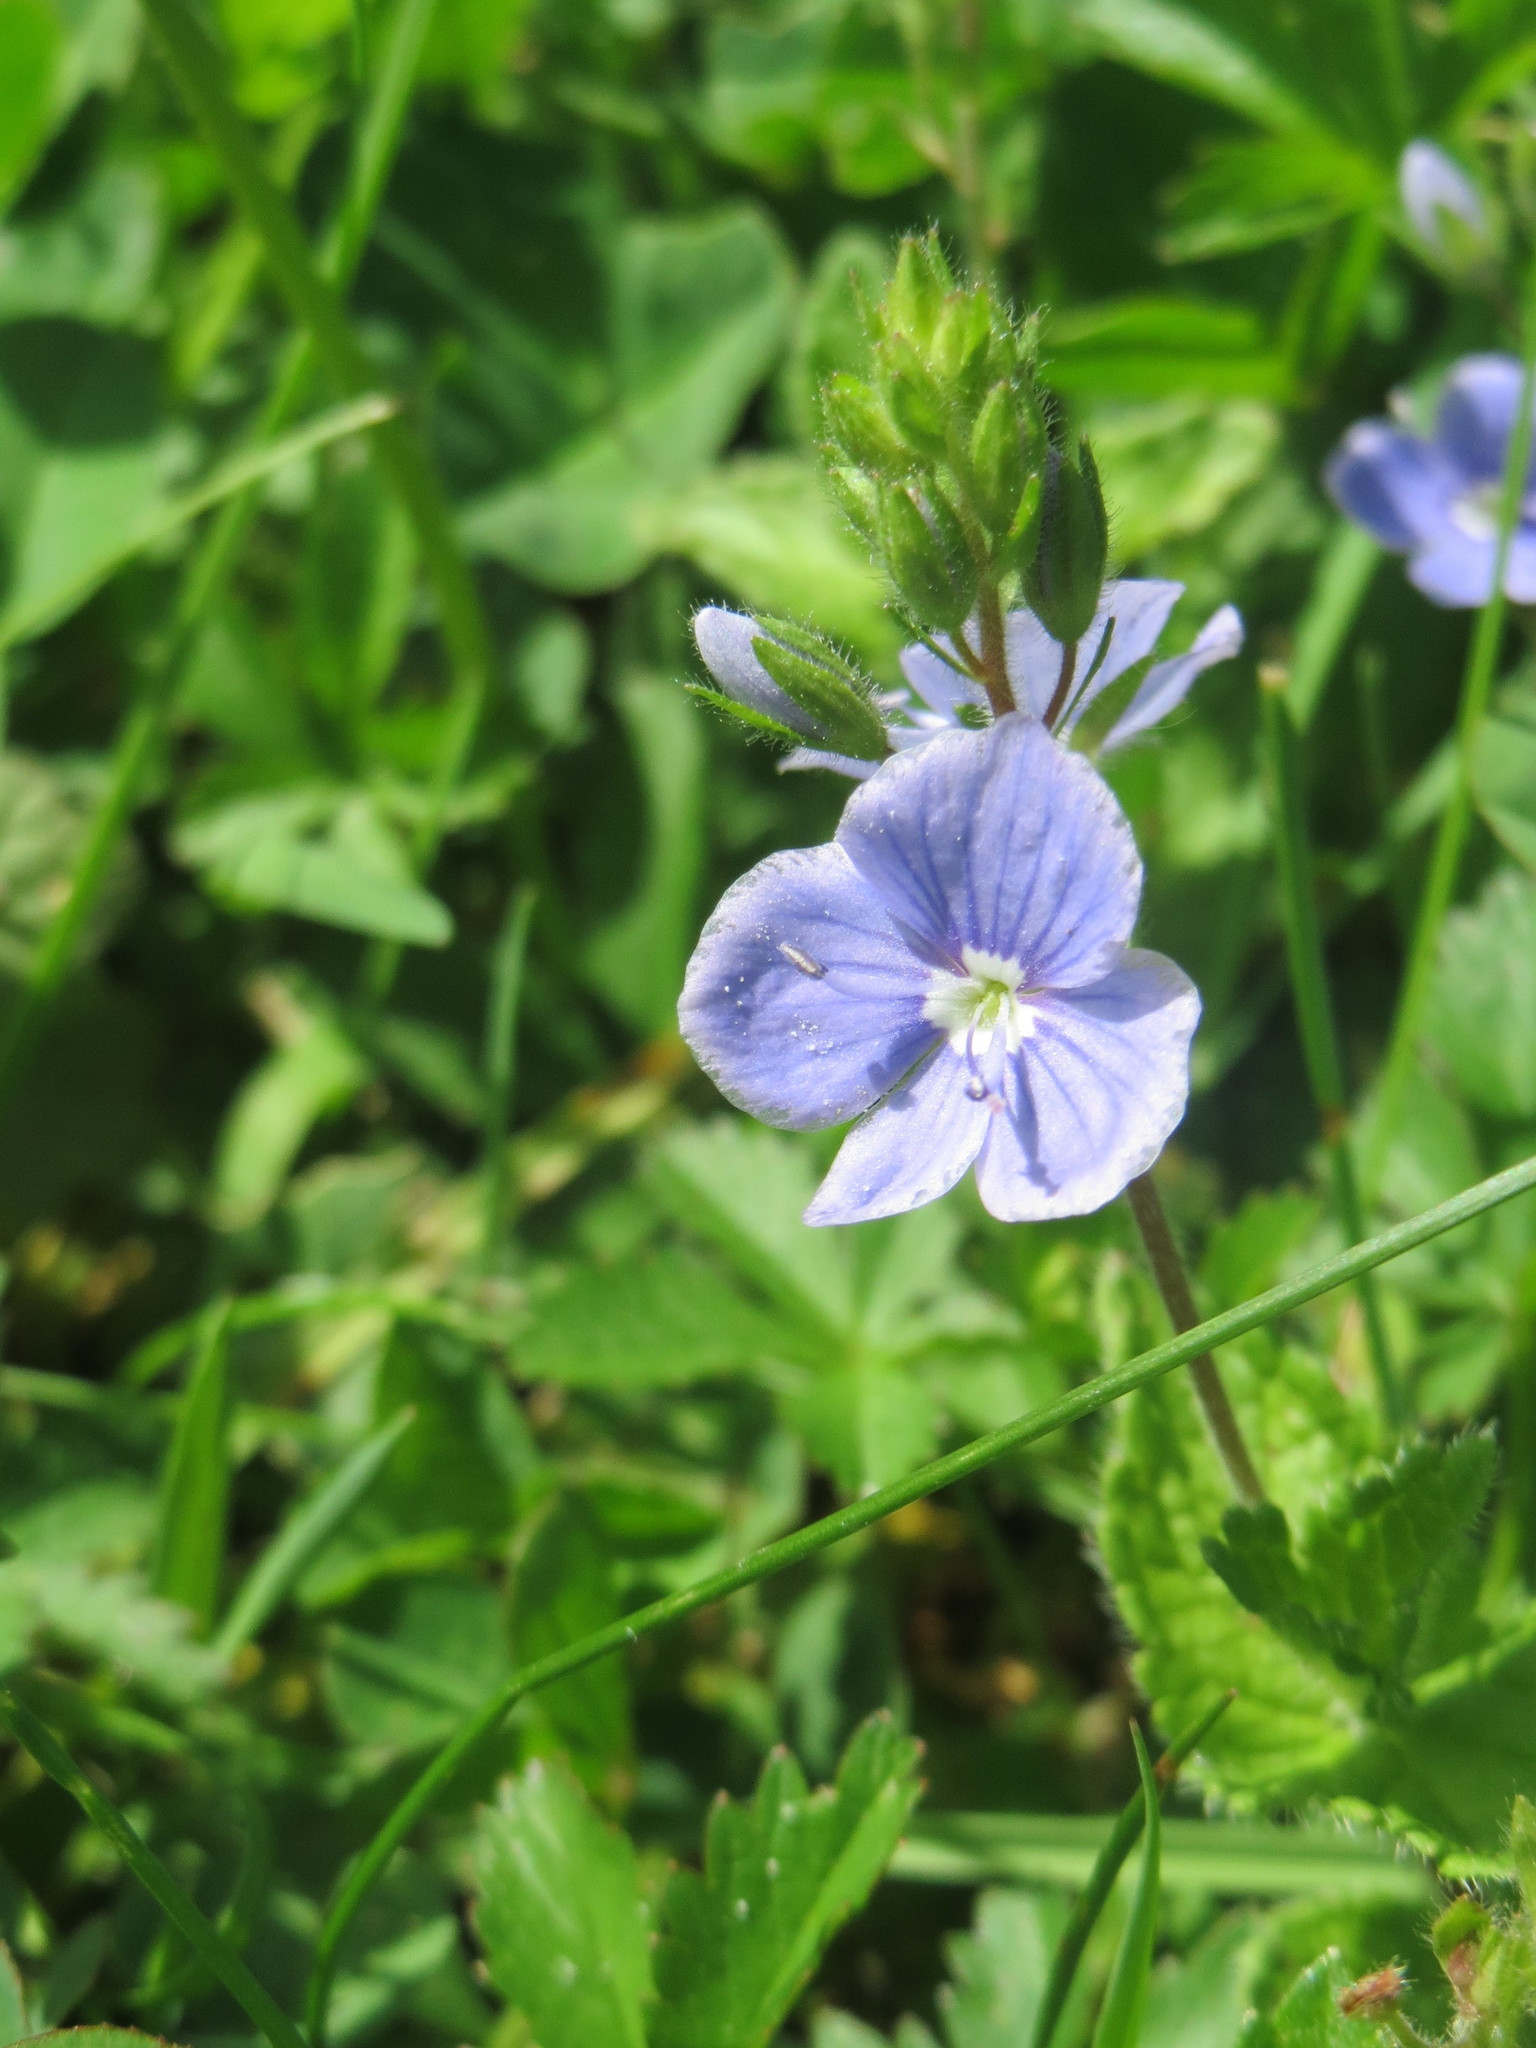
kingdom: Plantae
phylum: Tracheophyta
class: Magnoliopsida
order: Lamiales
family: Plantaginaceae
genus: Veronica
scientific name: Veronica chamaedrys
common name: Germander speedwell
